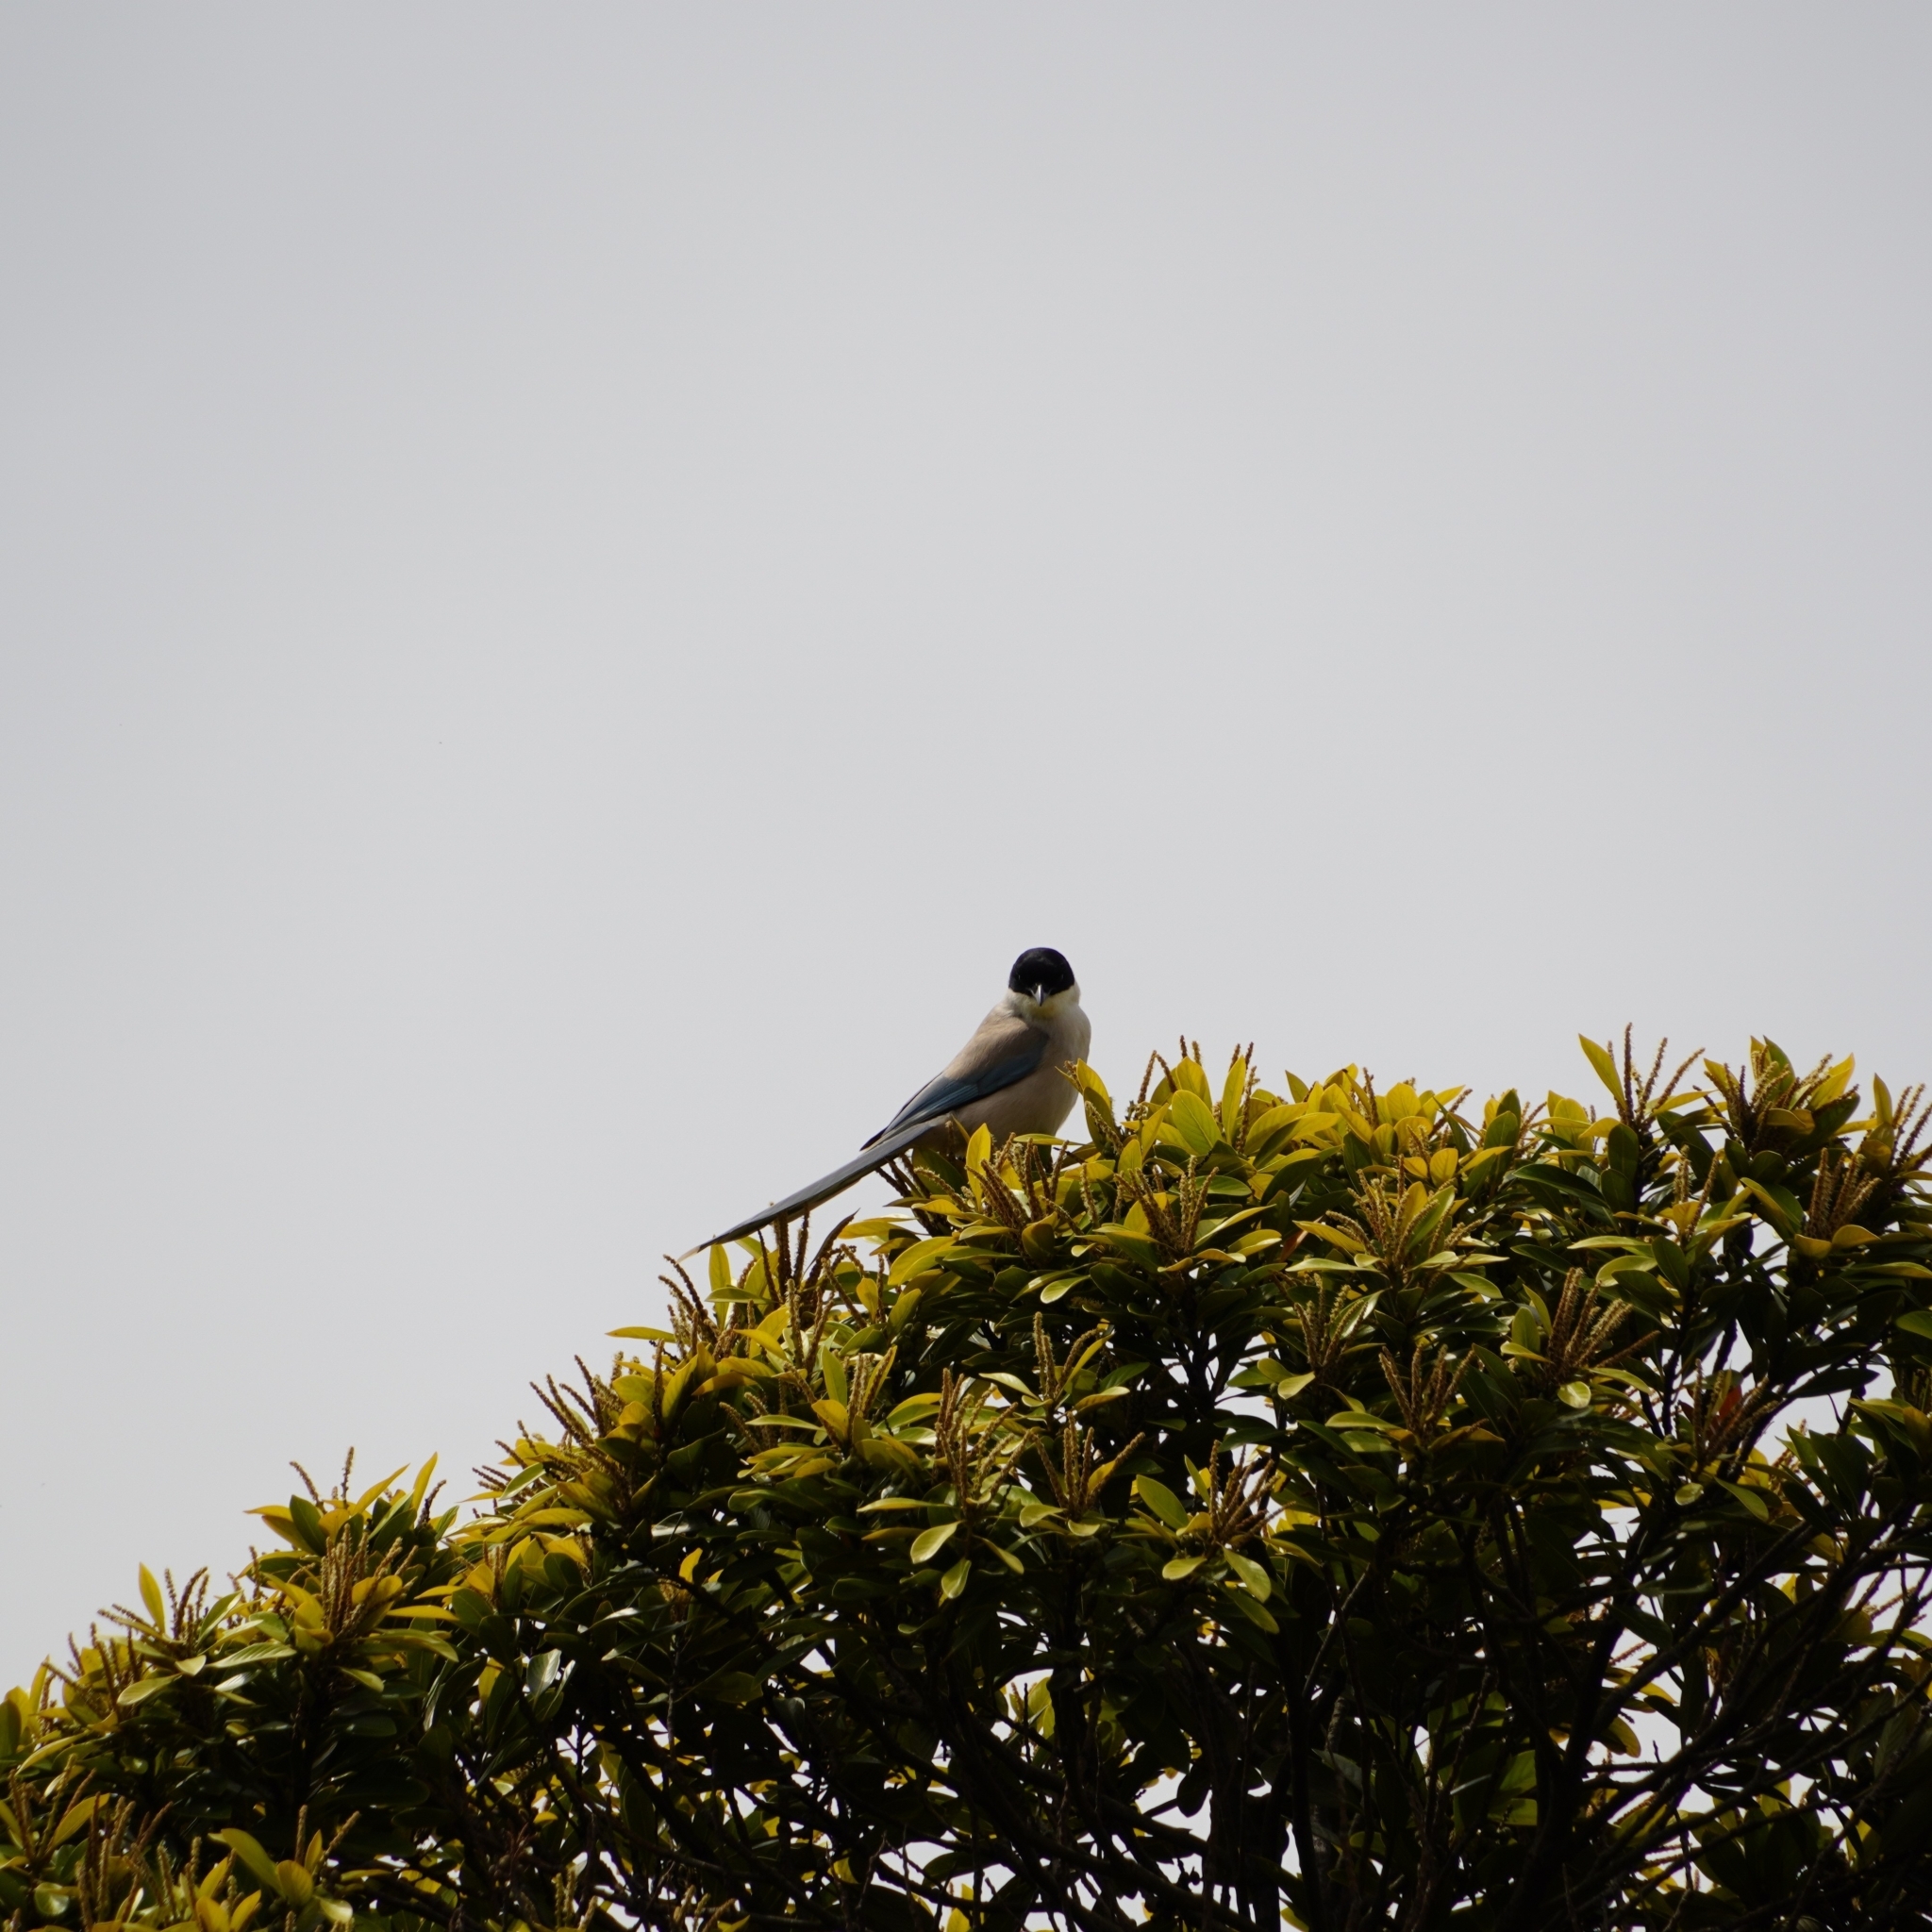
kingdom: Animalia
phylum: Chordata
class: Aves
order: Passeriformes
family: Corvidae
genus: Cyanopica
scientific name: Cyanopica cyanus
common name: Azure-winged magpie
